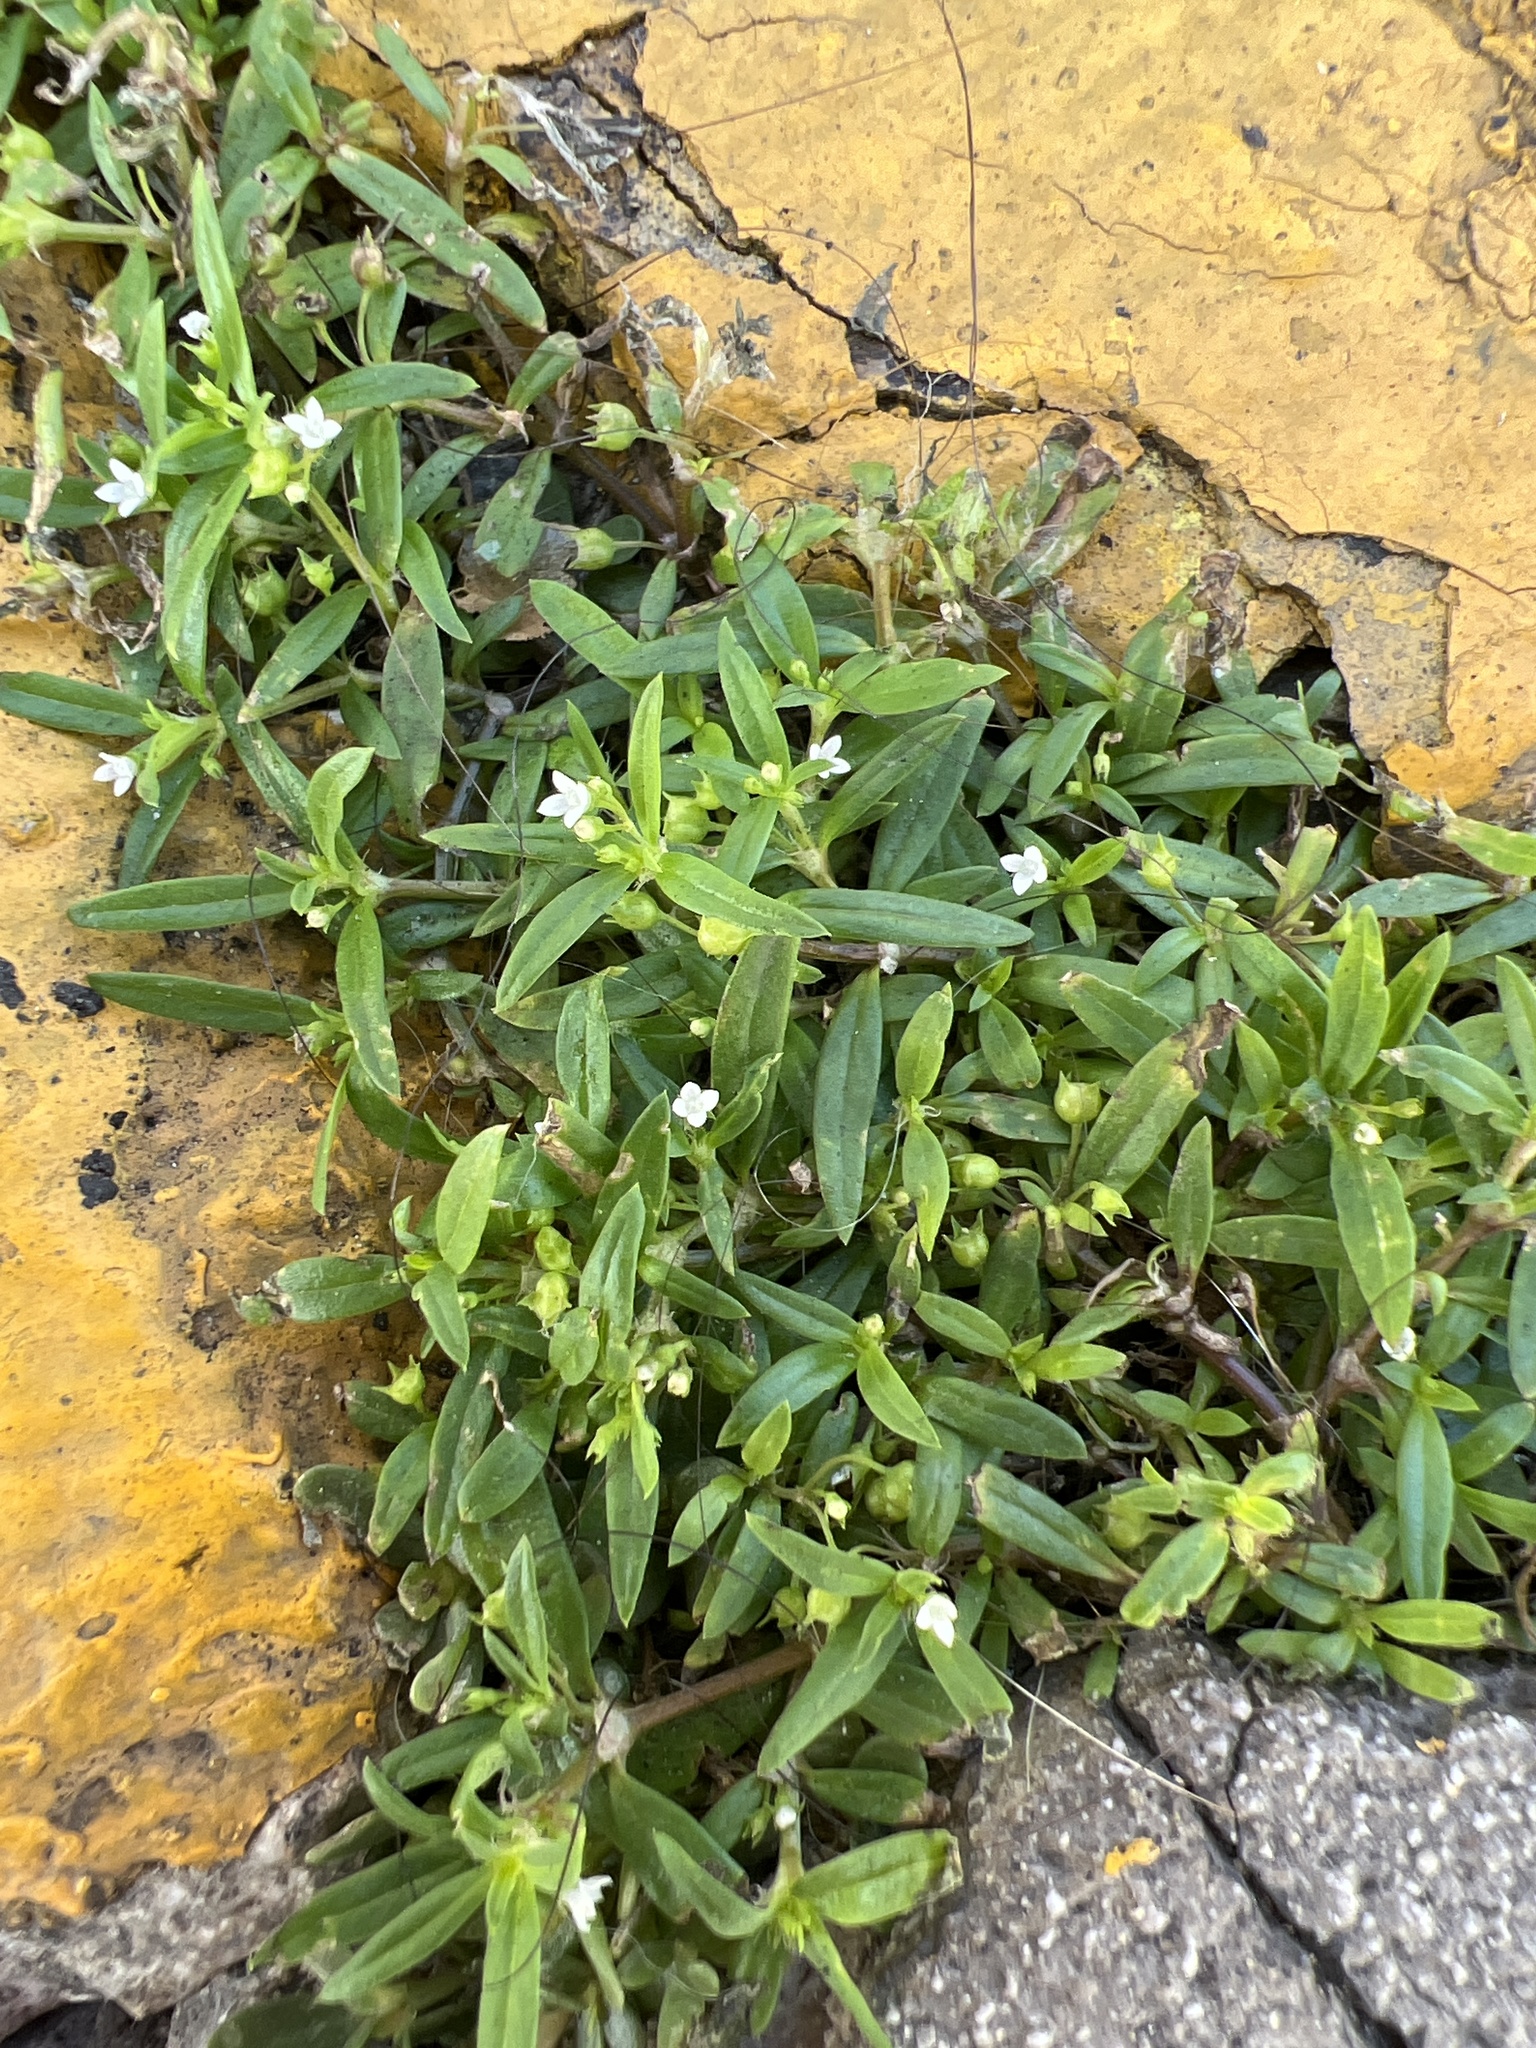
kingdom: Plantae
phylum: Tracheophyta
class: Magnoliopsida
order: Gentianales
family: Rubiaceae
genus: Oldenlandia
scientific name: Oldenlandia corymbosa
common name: Flat-top mille graines
